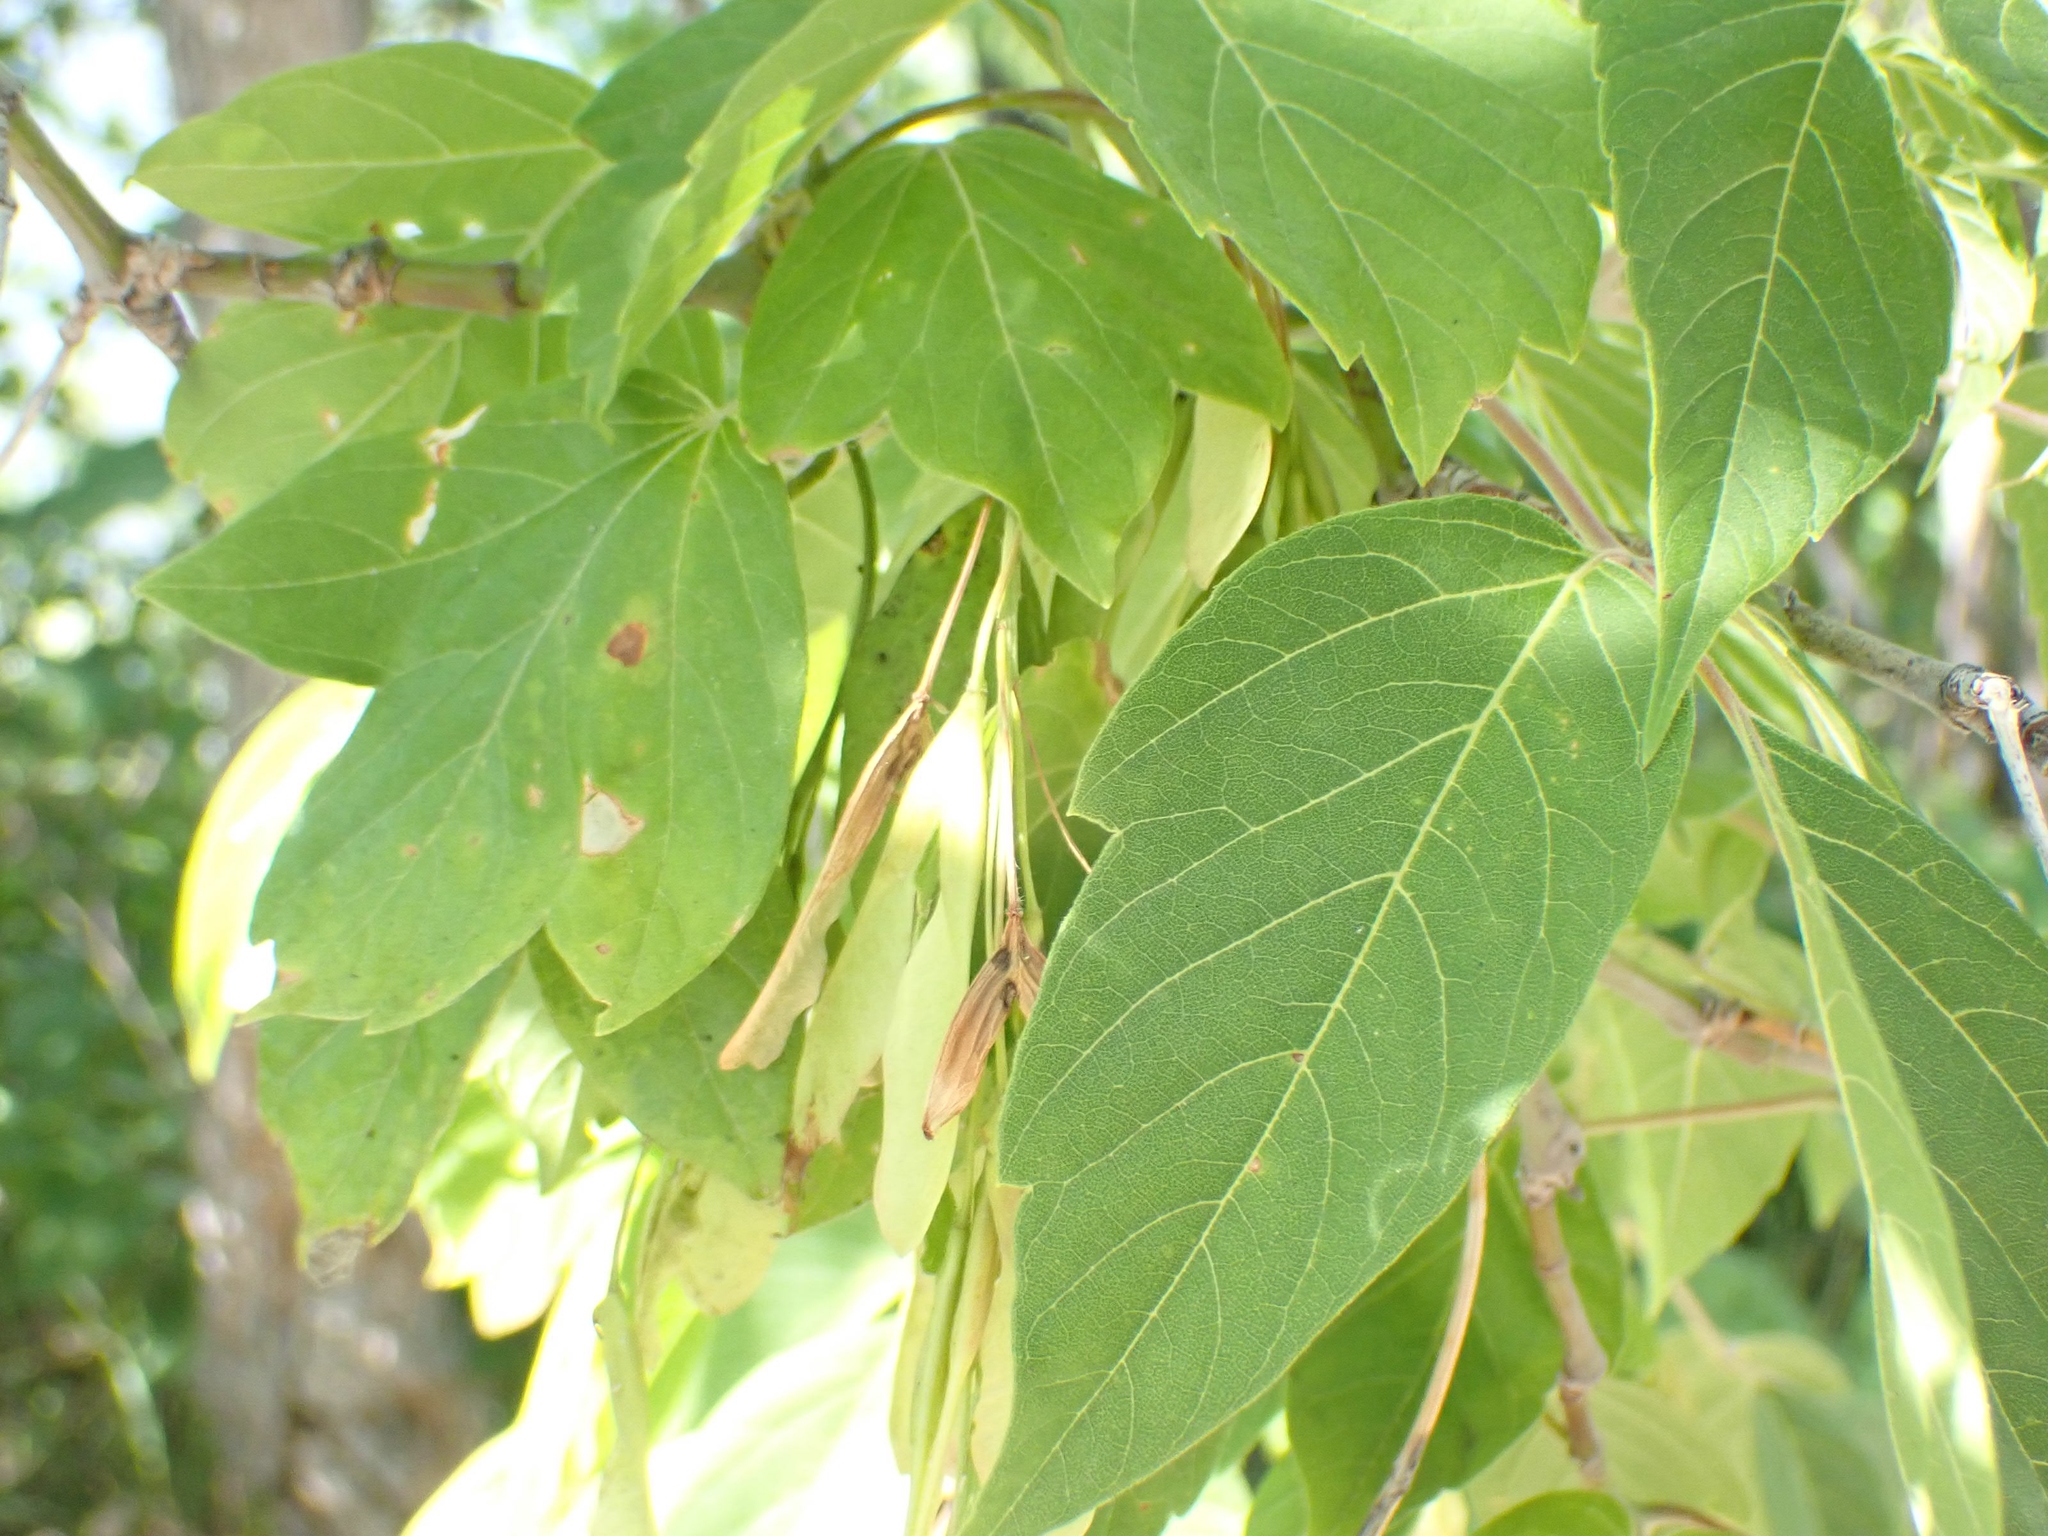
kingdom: Plantae
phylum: Tracheophyta
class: Magnoliopsida
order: Sapindales
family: Sapindaceae
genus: Acer
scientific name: Acer negundo
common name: Ashleaf maple
